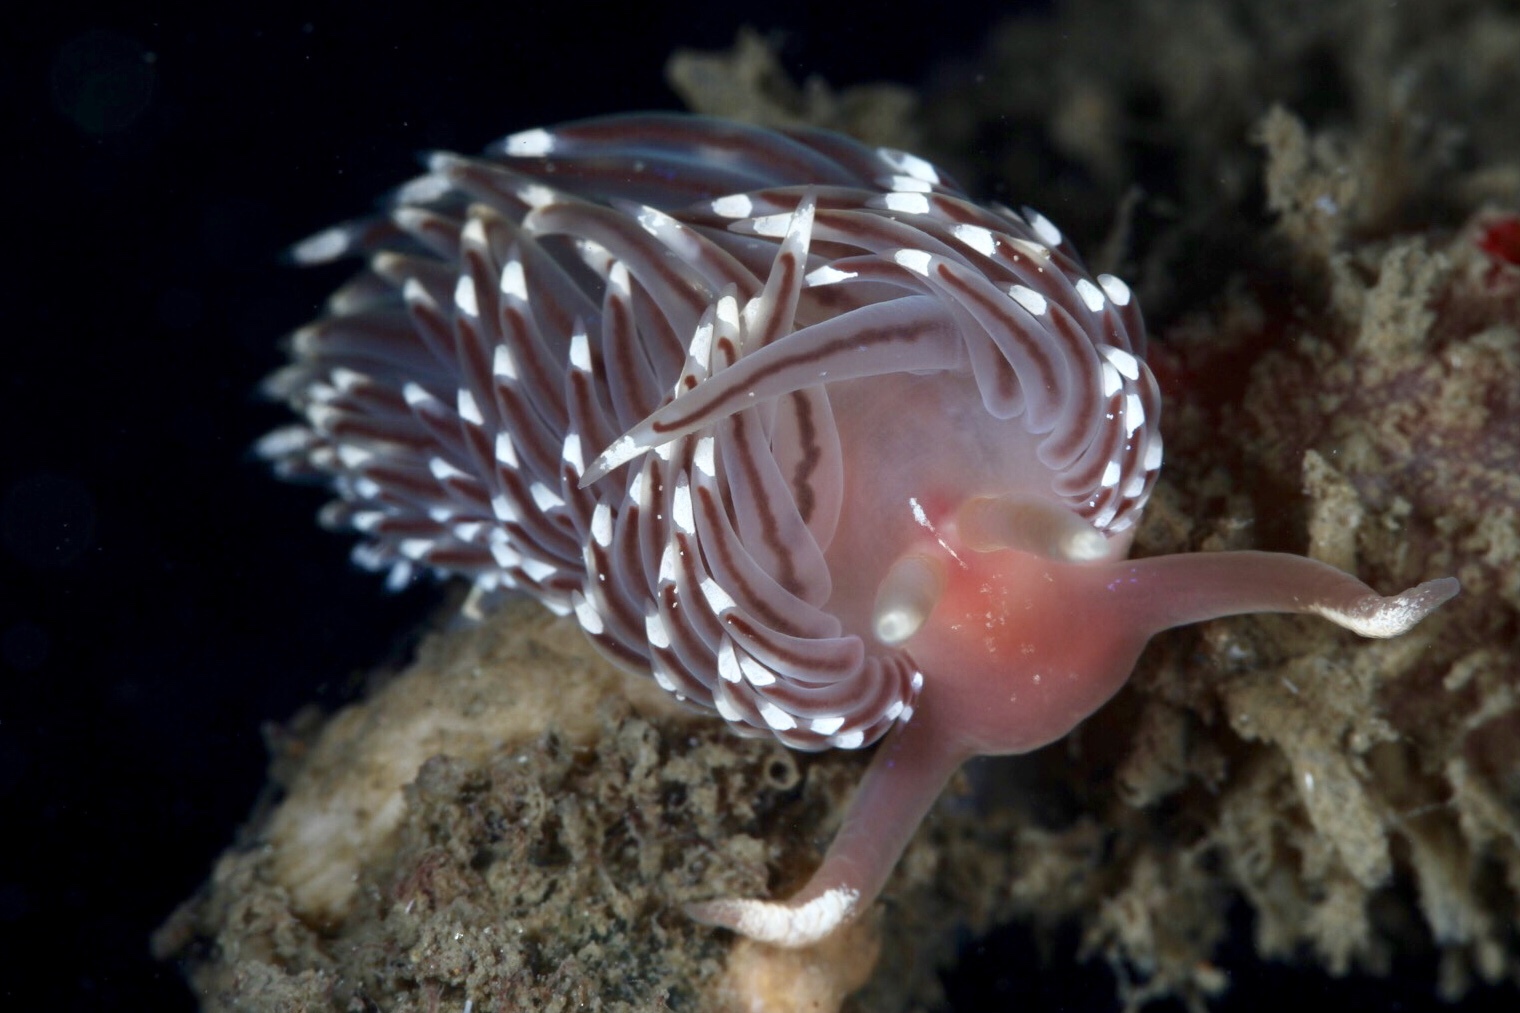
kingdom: Animalia
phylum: Mollusca
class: Gastropoda
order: Nudibranchia
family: Facelinidae
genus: Facelina
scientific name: Facelina bostoniensis
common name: Boston facelina
